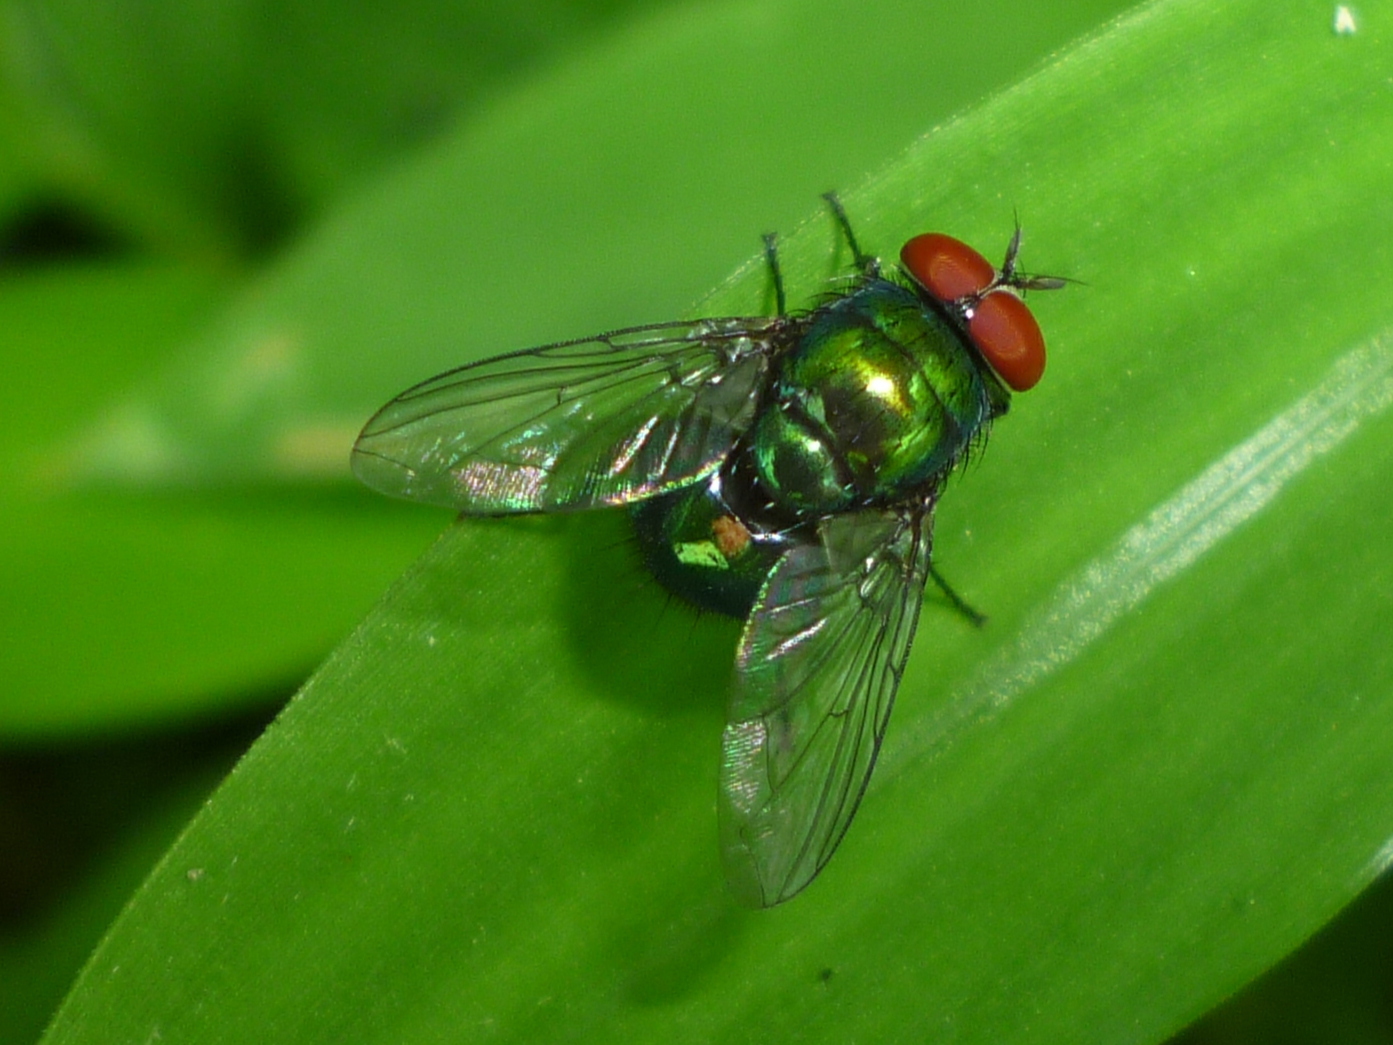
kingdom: Animalia
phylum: Arthropoda
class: Insecta
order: Diptera
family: Calliphoridae
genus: Lucilia
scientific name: Lucilia illustris
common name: Illustrious greenbottle
